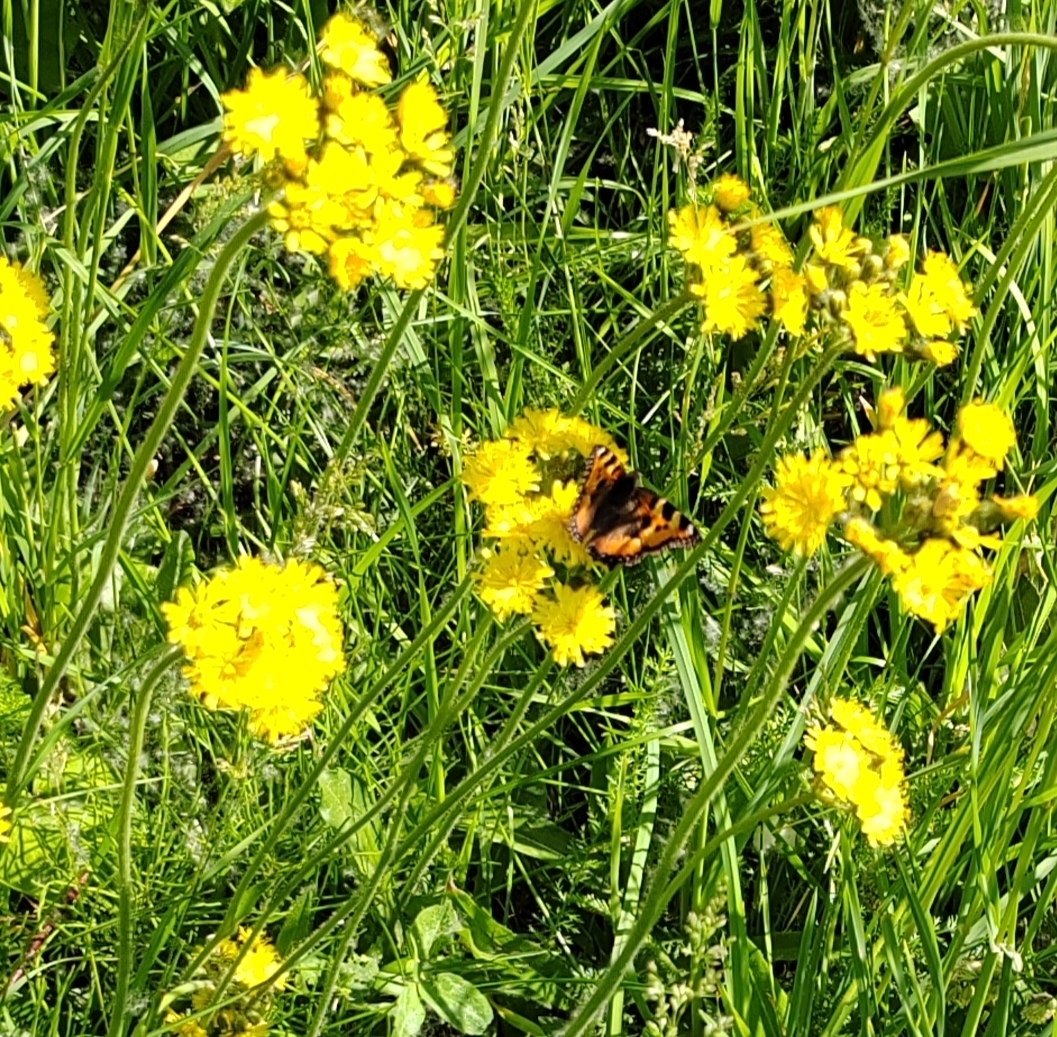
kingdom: Animalia
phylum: Arthropoda
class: Insecta
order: Lepidoptera
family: Nymphalidae
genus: Aglais
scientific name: Aglais urticae
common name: Small tortoiseshell
